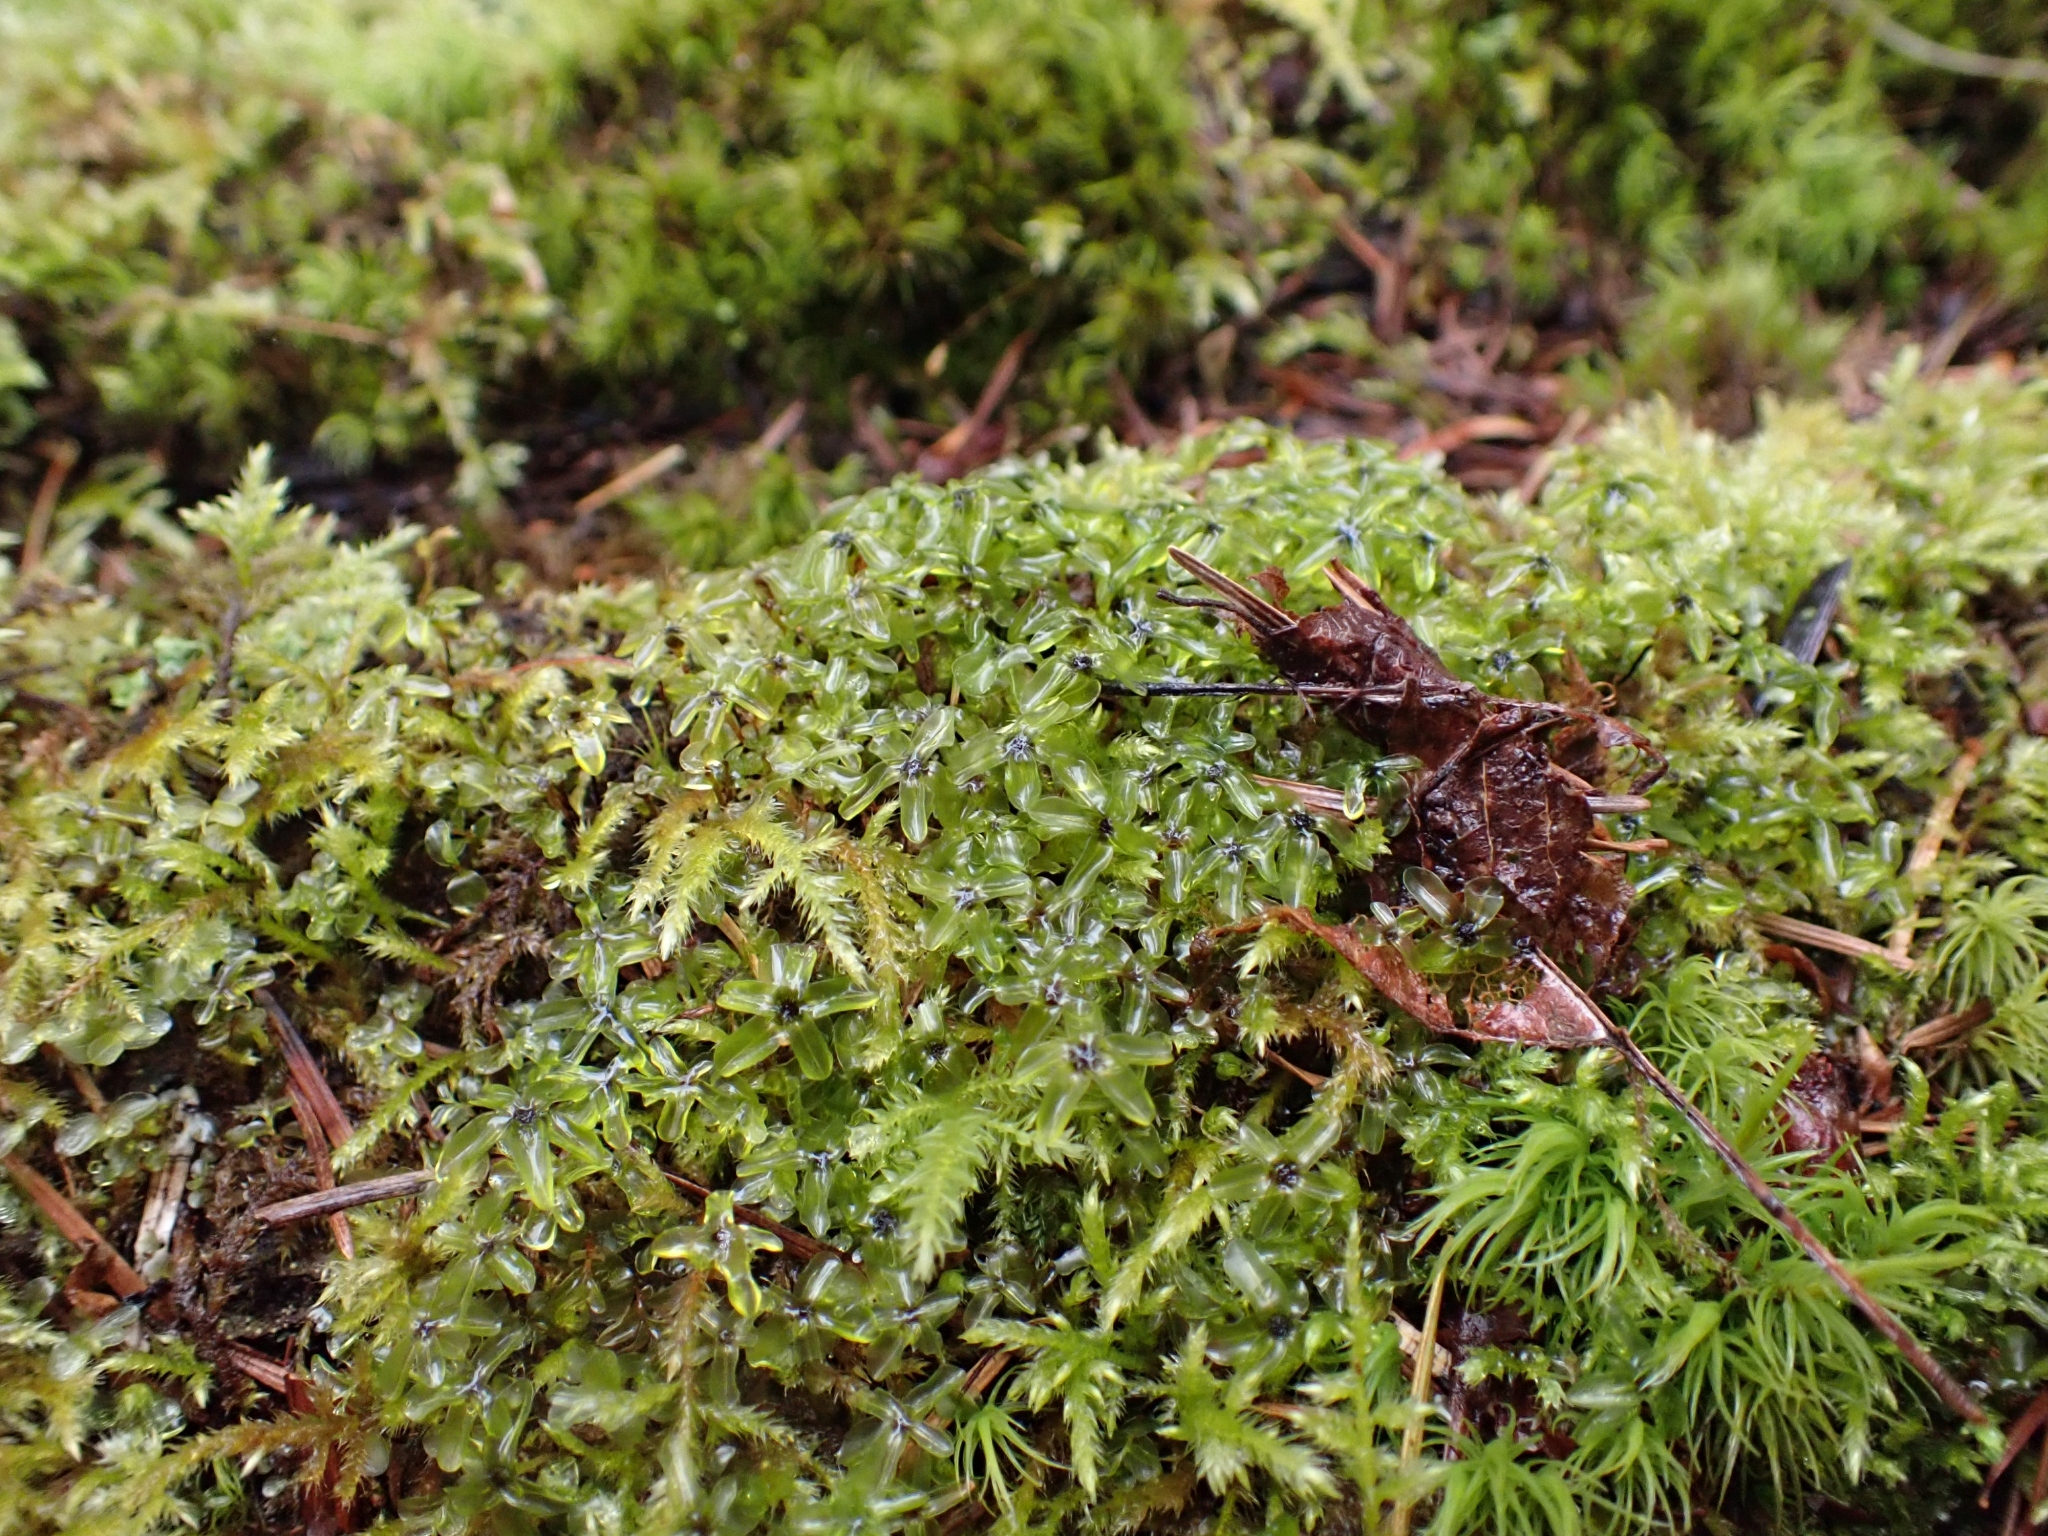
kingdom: Plantae
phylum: Bryophyta
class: Bryopsida
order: Bryales
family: Mniaceae
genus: Rhizomnium
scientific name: Rhizomnium glabrescens
